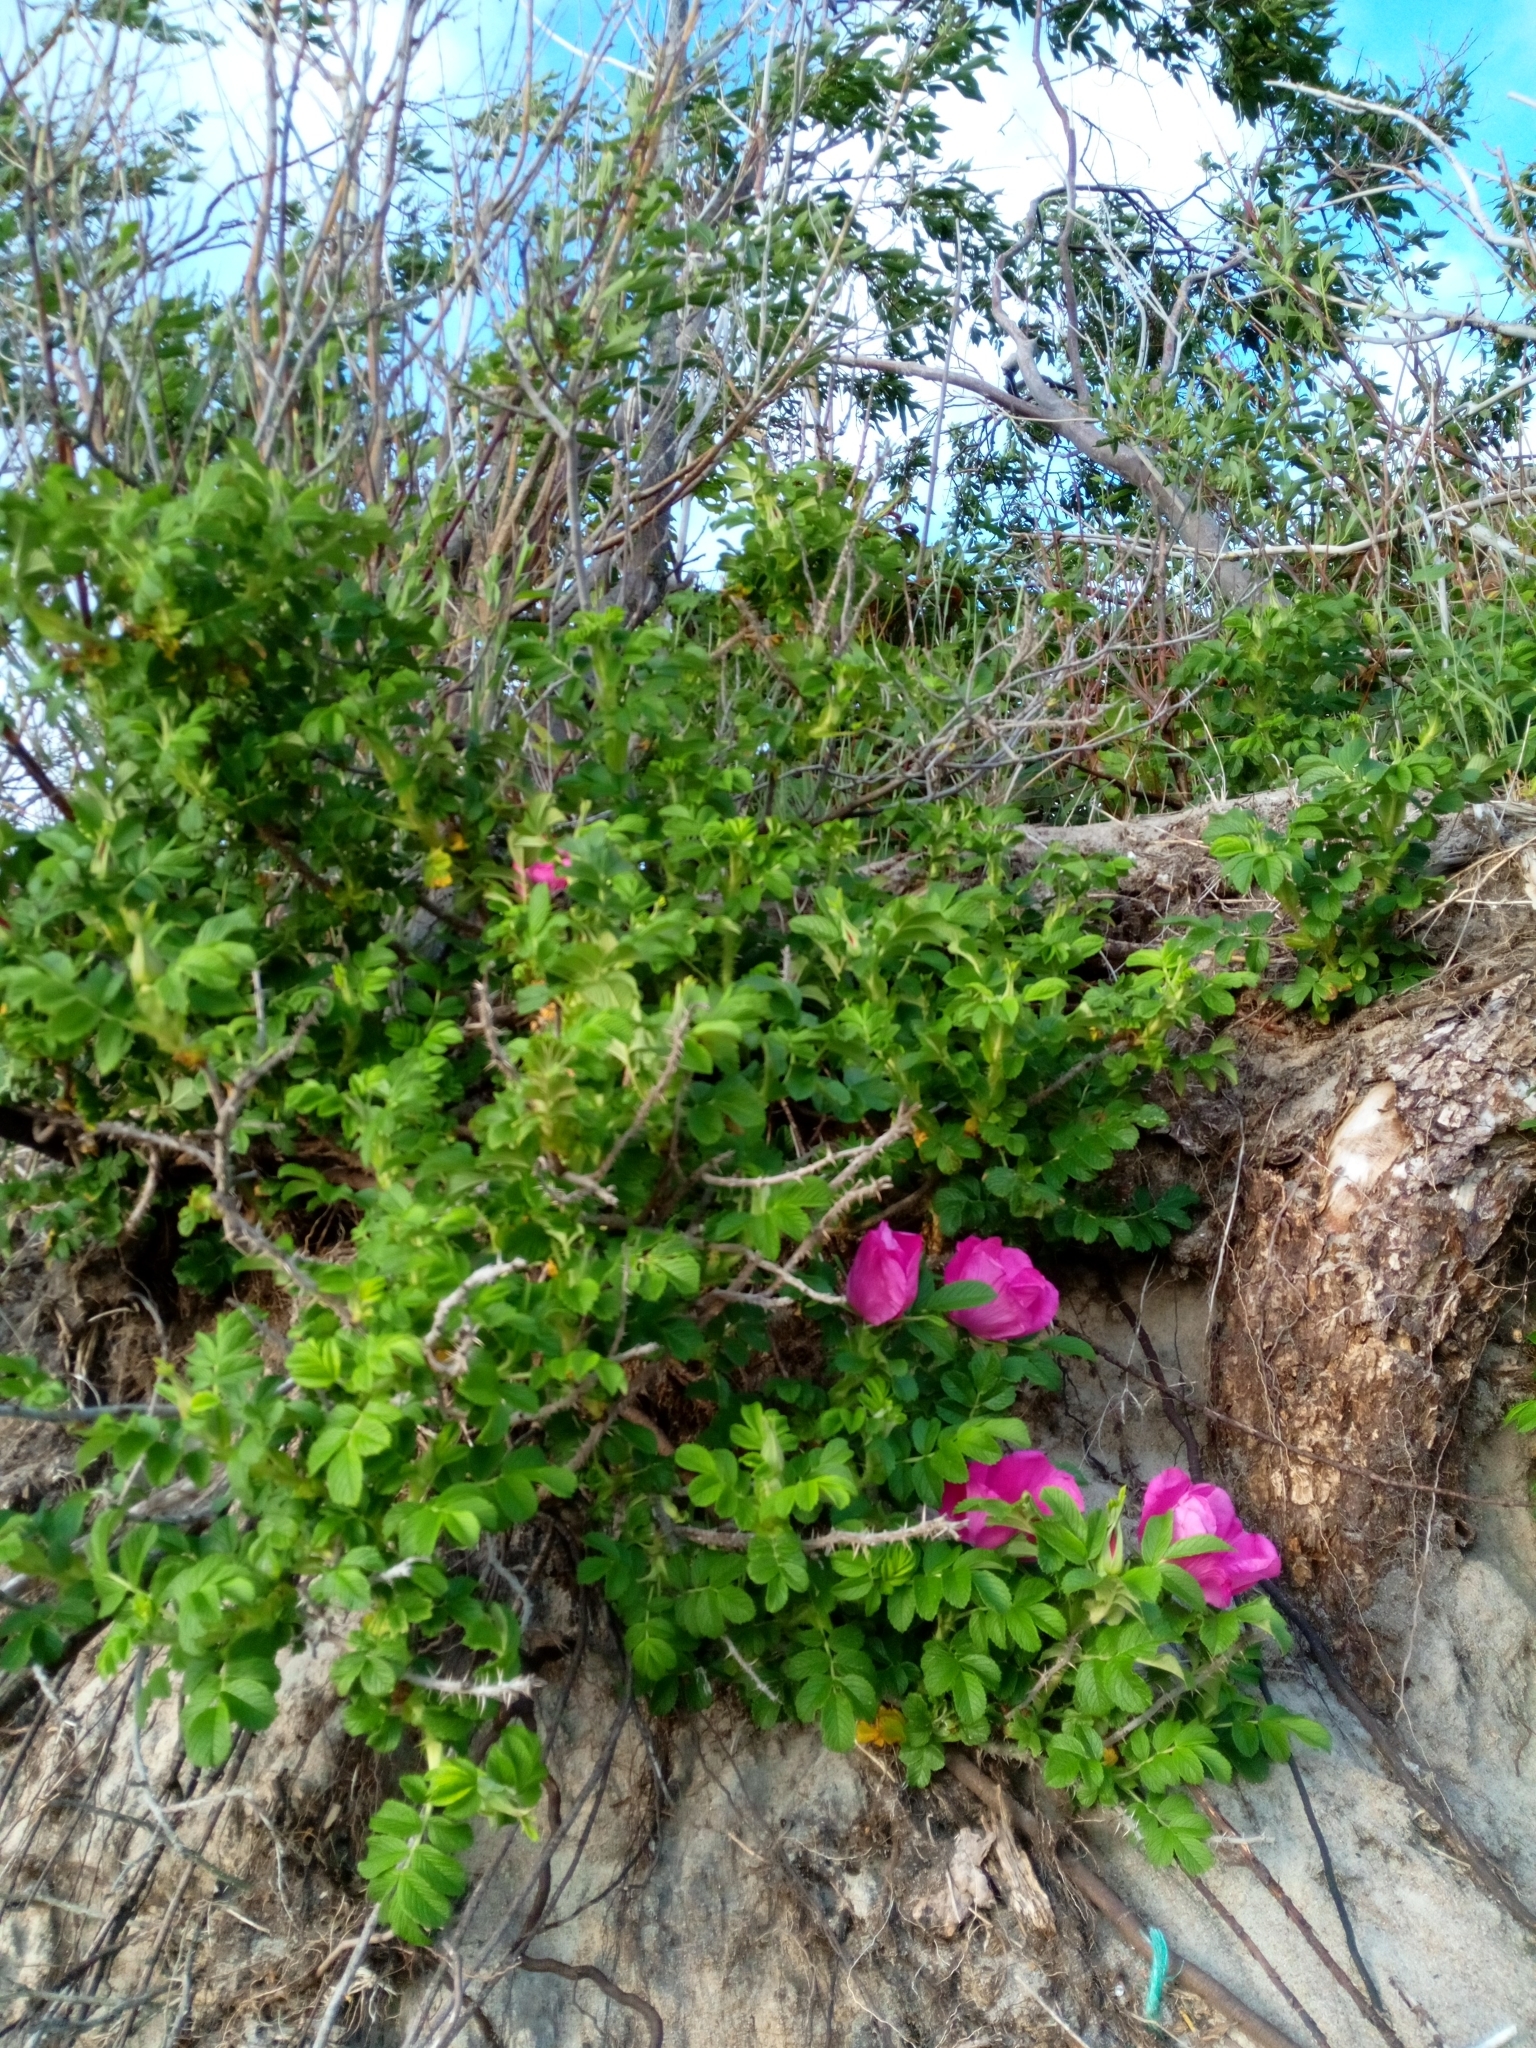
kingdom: Plantae
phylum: Tracheophyta
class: Magnoliopsida
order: Rosales
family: Rosaceae
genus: Rosa
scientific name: Rosa rugosa
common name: Japanese rose
